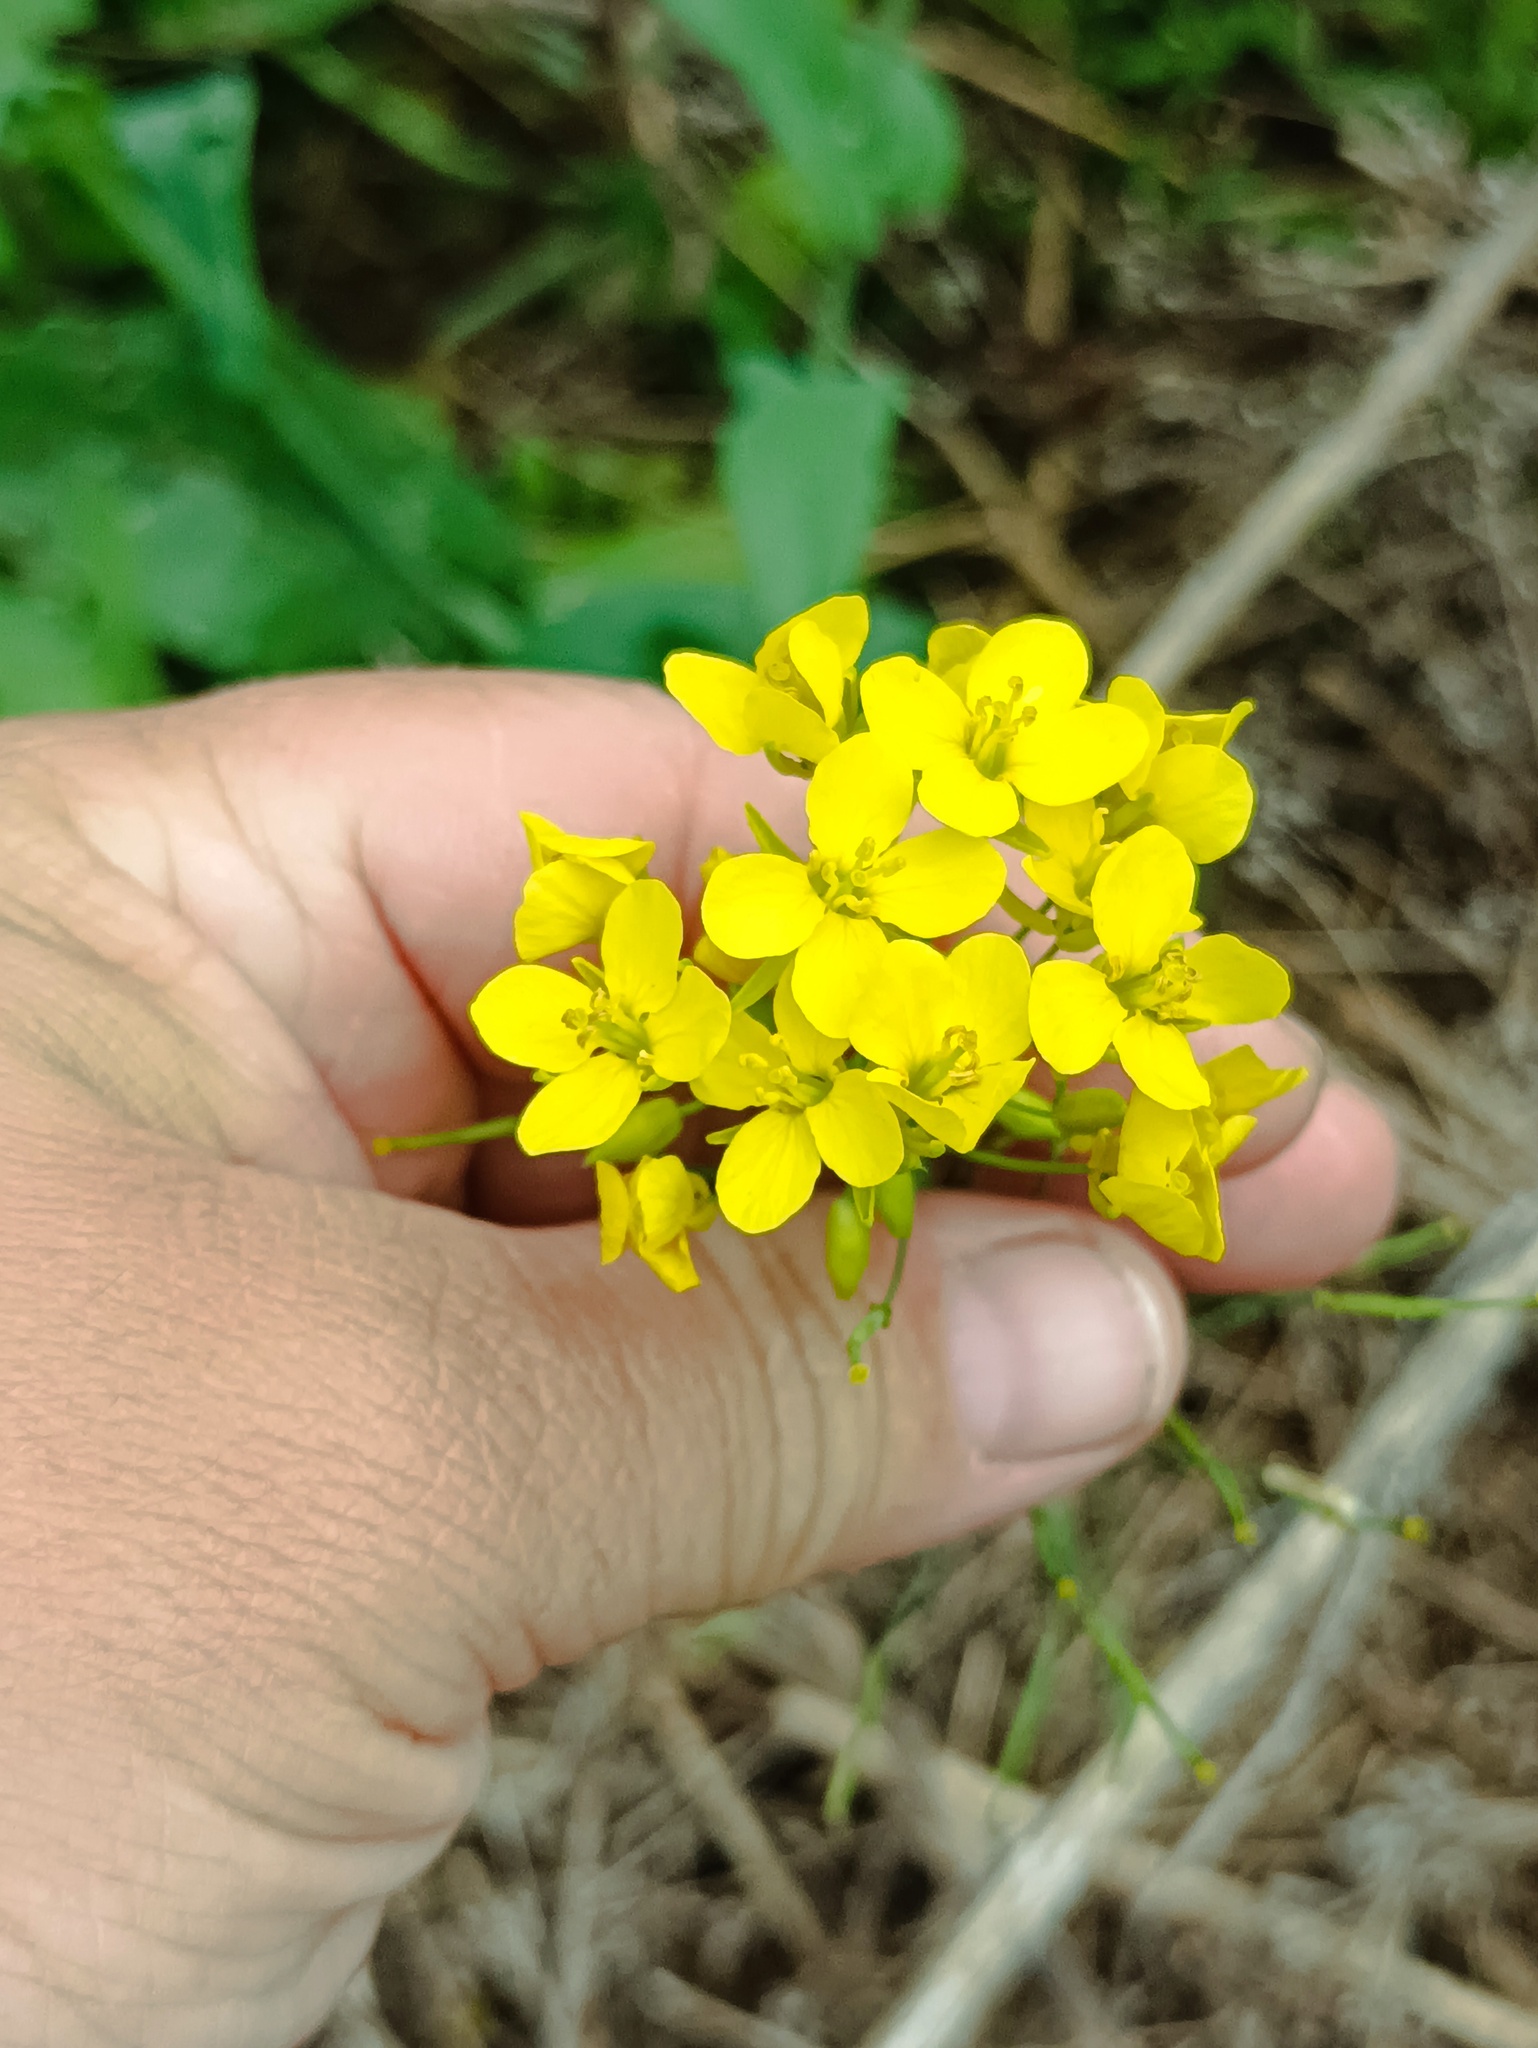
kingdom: Plantae
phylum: Tracheophyta
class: Magnoliopsida
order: Brassicales
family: Brassicaceae
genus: Brassica
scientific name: Brassica rapa
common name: Field mustard
